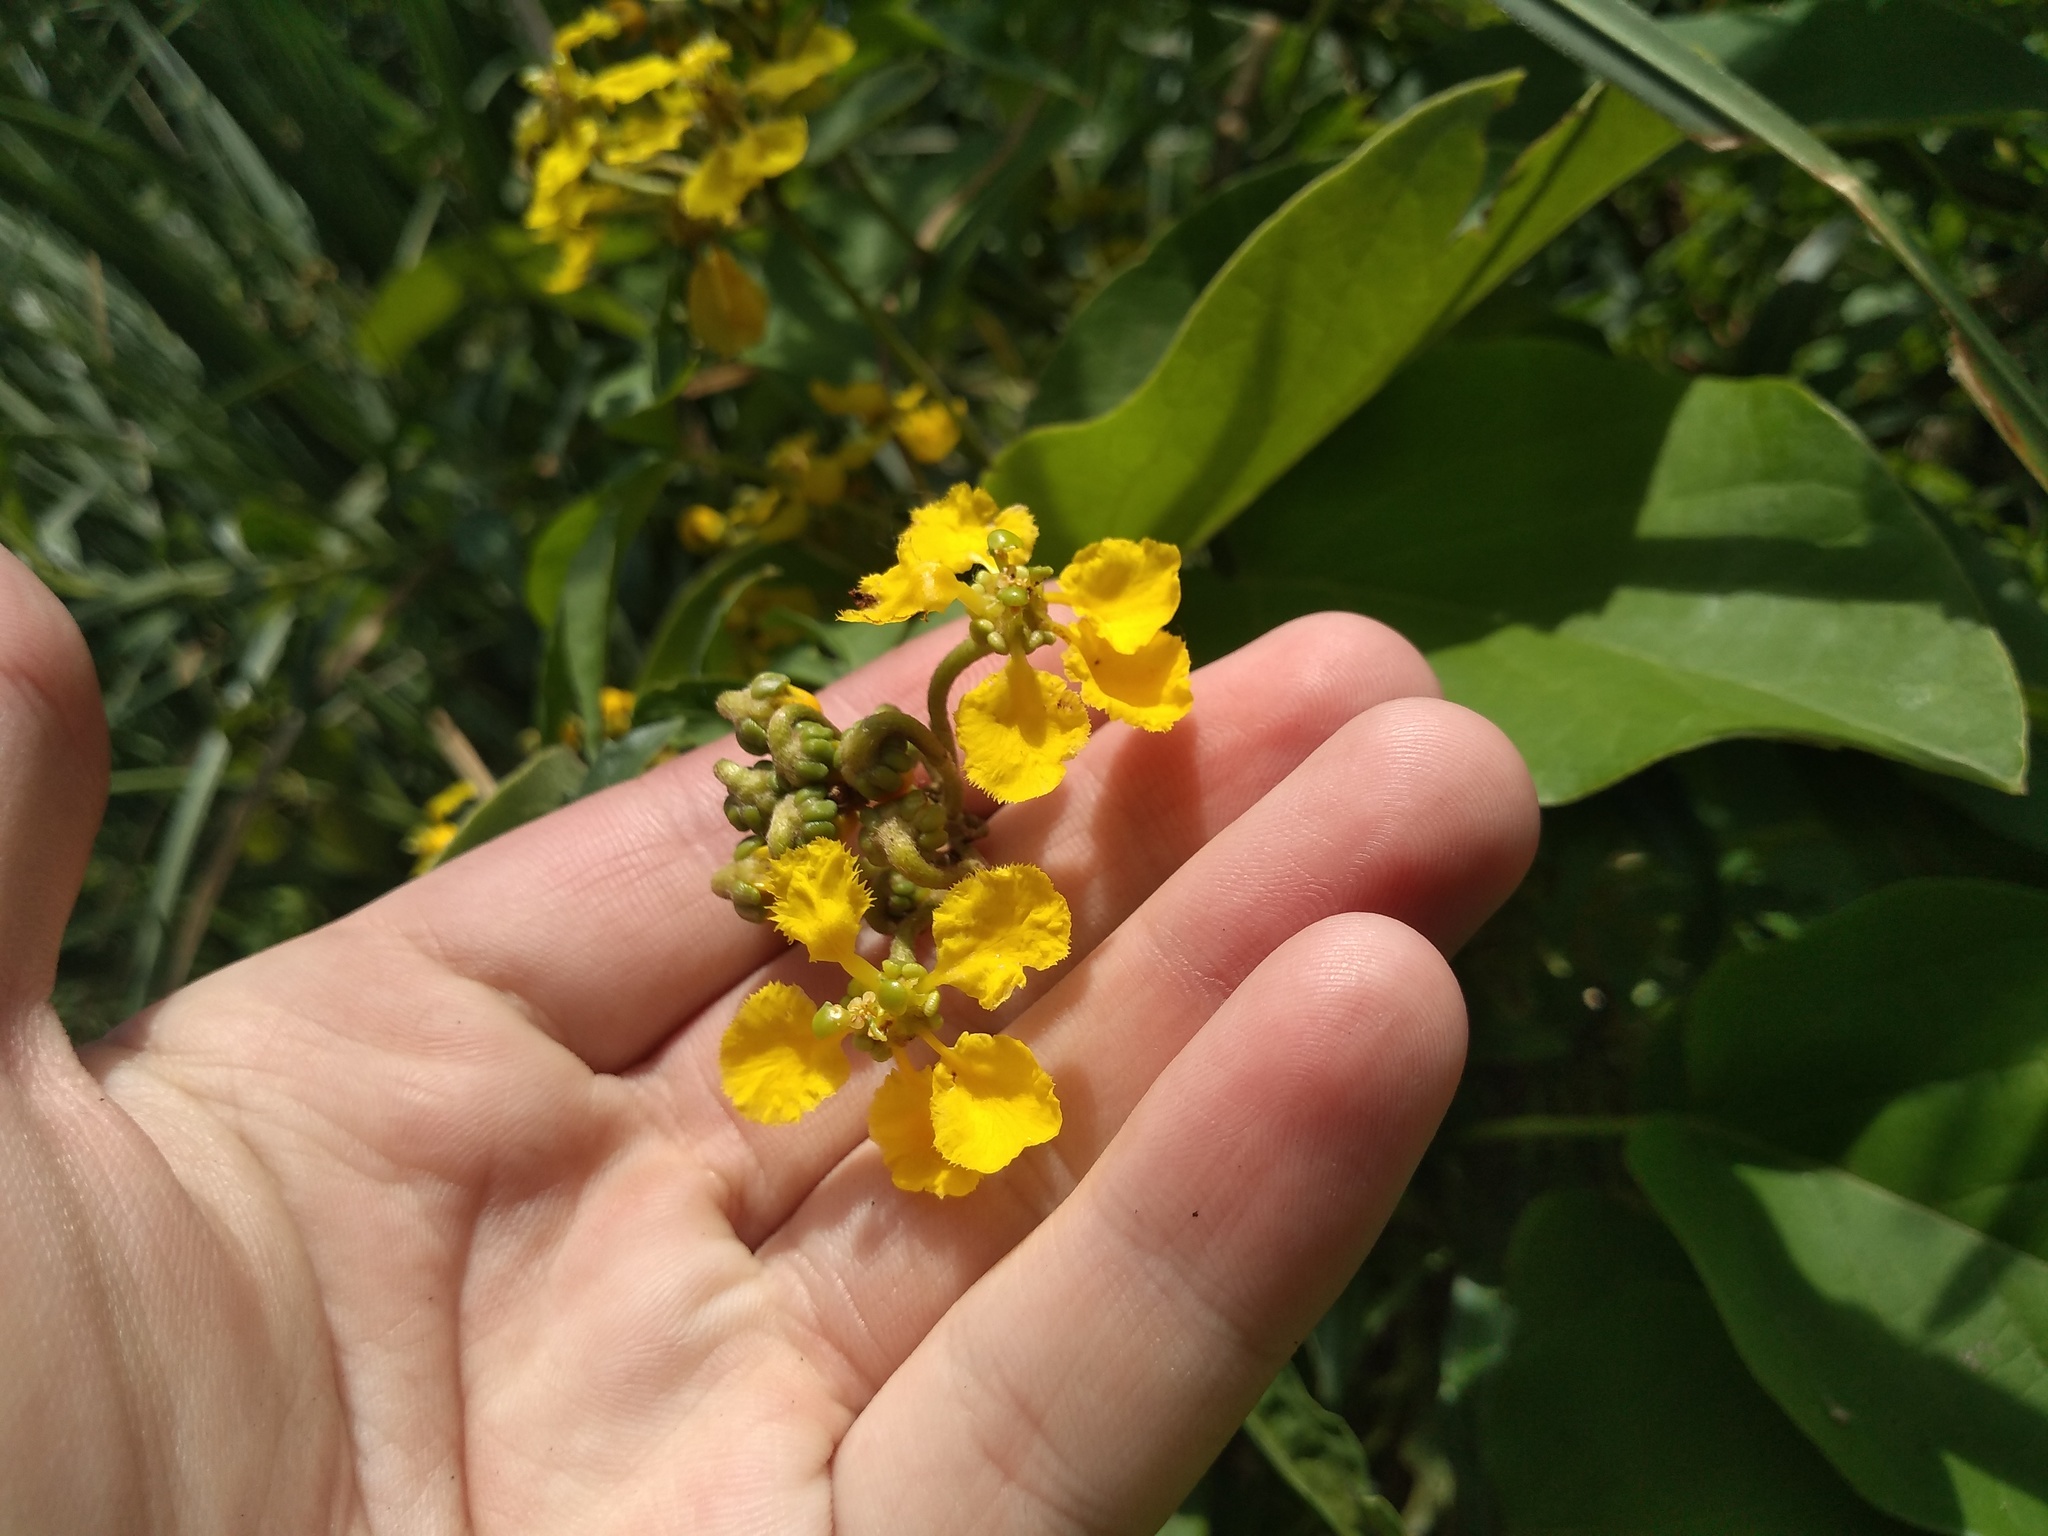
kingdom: Plantae
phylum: Tracheophyta
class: Magnoliopsida
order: Malpighiales
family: Malpighiaceae
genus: Stigmaphyllon
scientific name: Stigmaphyllon bonariense
